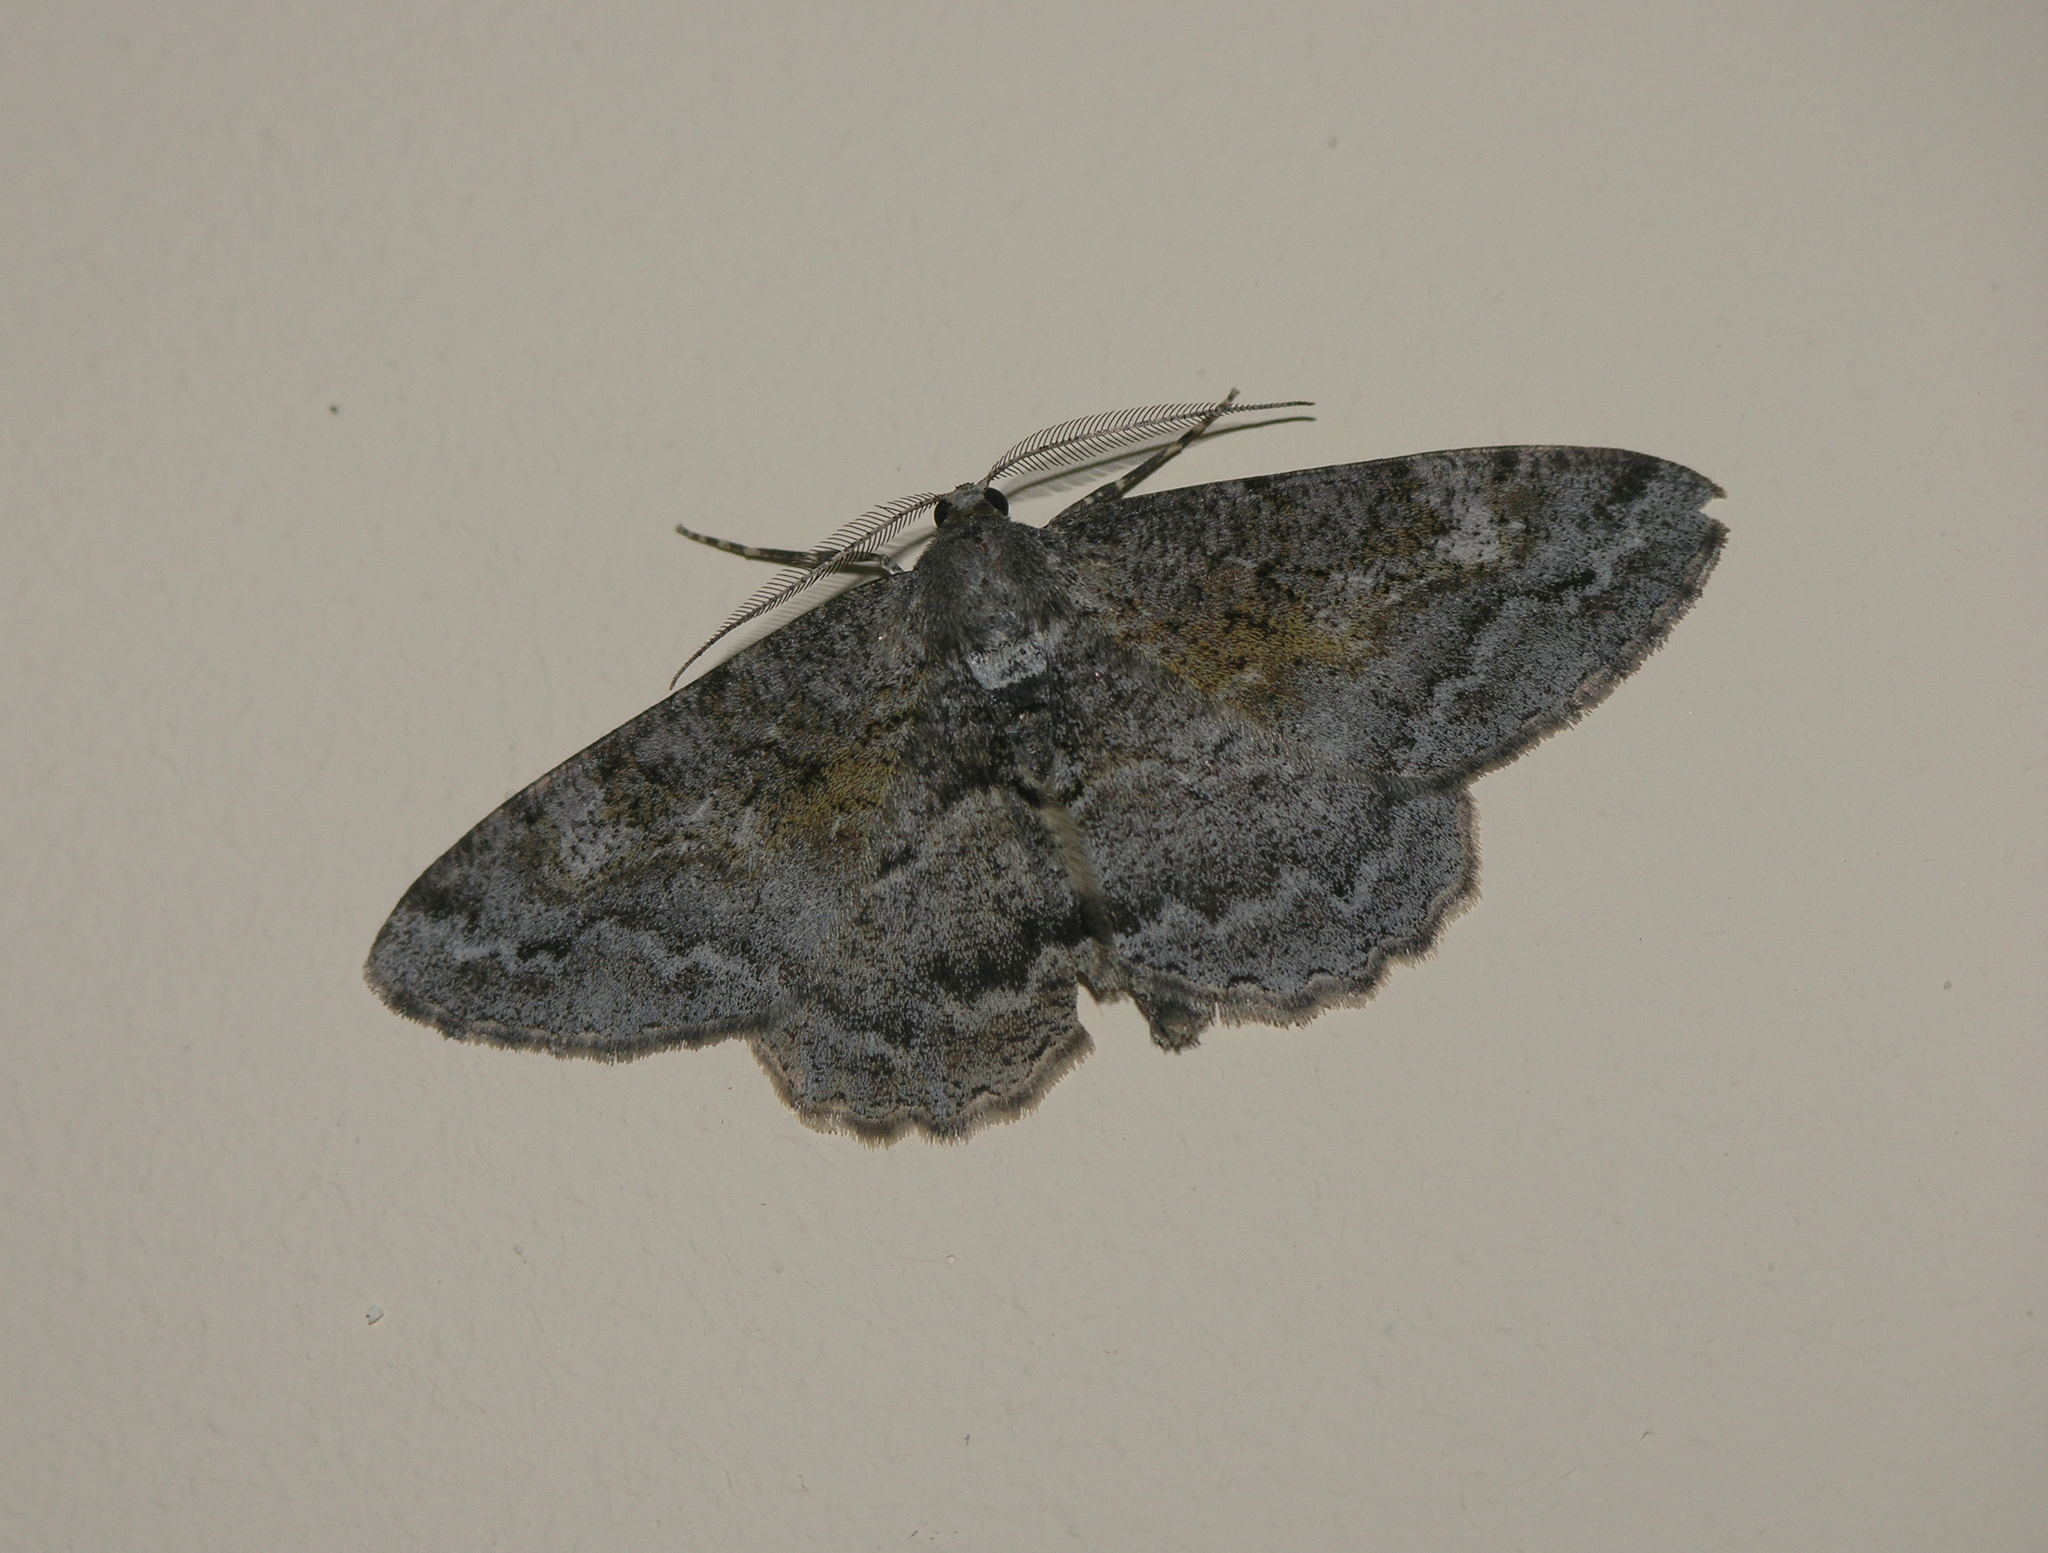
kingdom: Animalia
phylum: Arthropoda
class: Insecta
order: Lepidoptera
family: Geometridae
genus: Alcis
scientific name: Alcis repandata
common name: Mottled beauty
